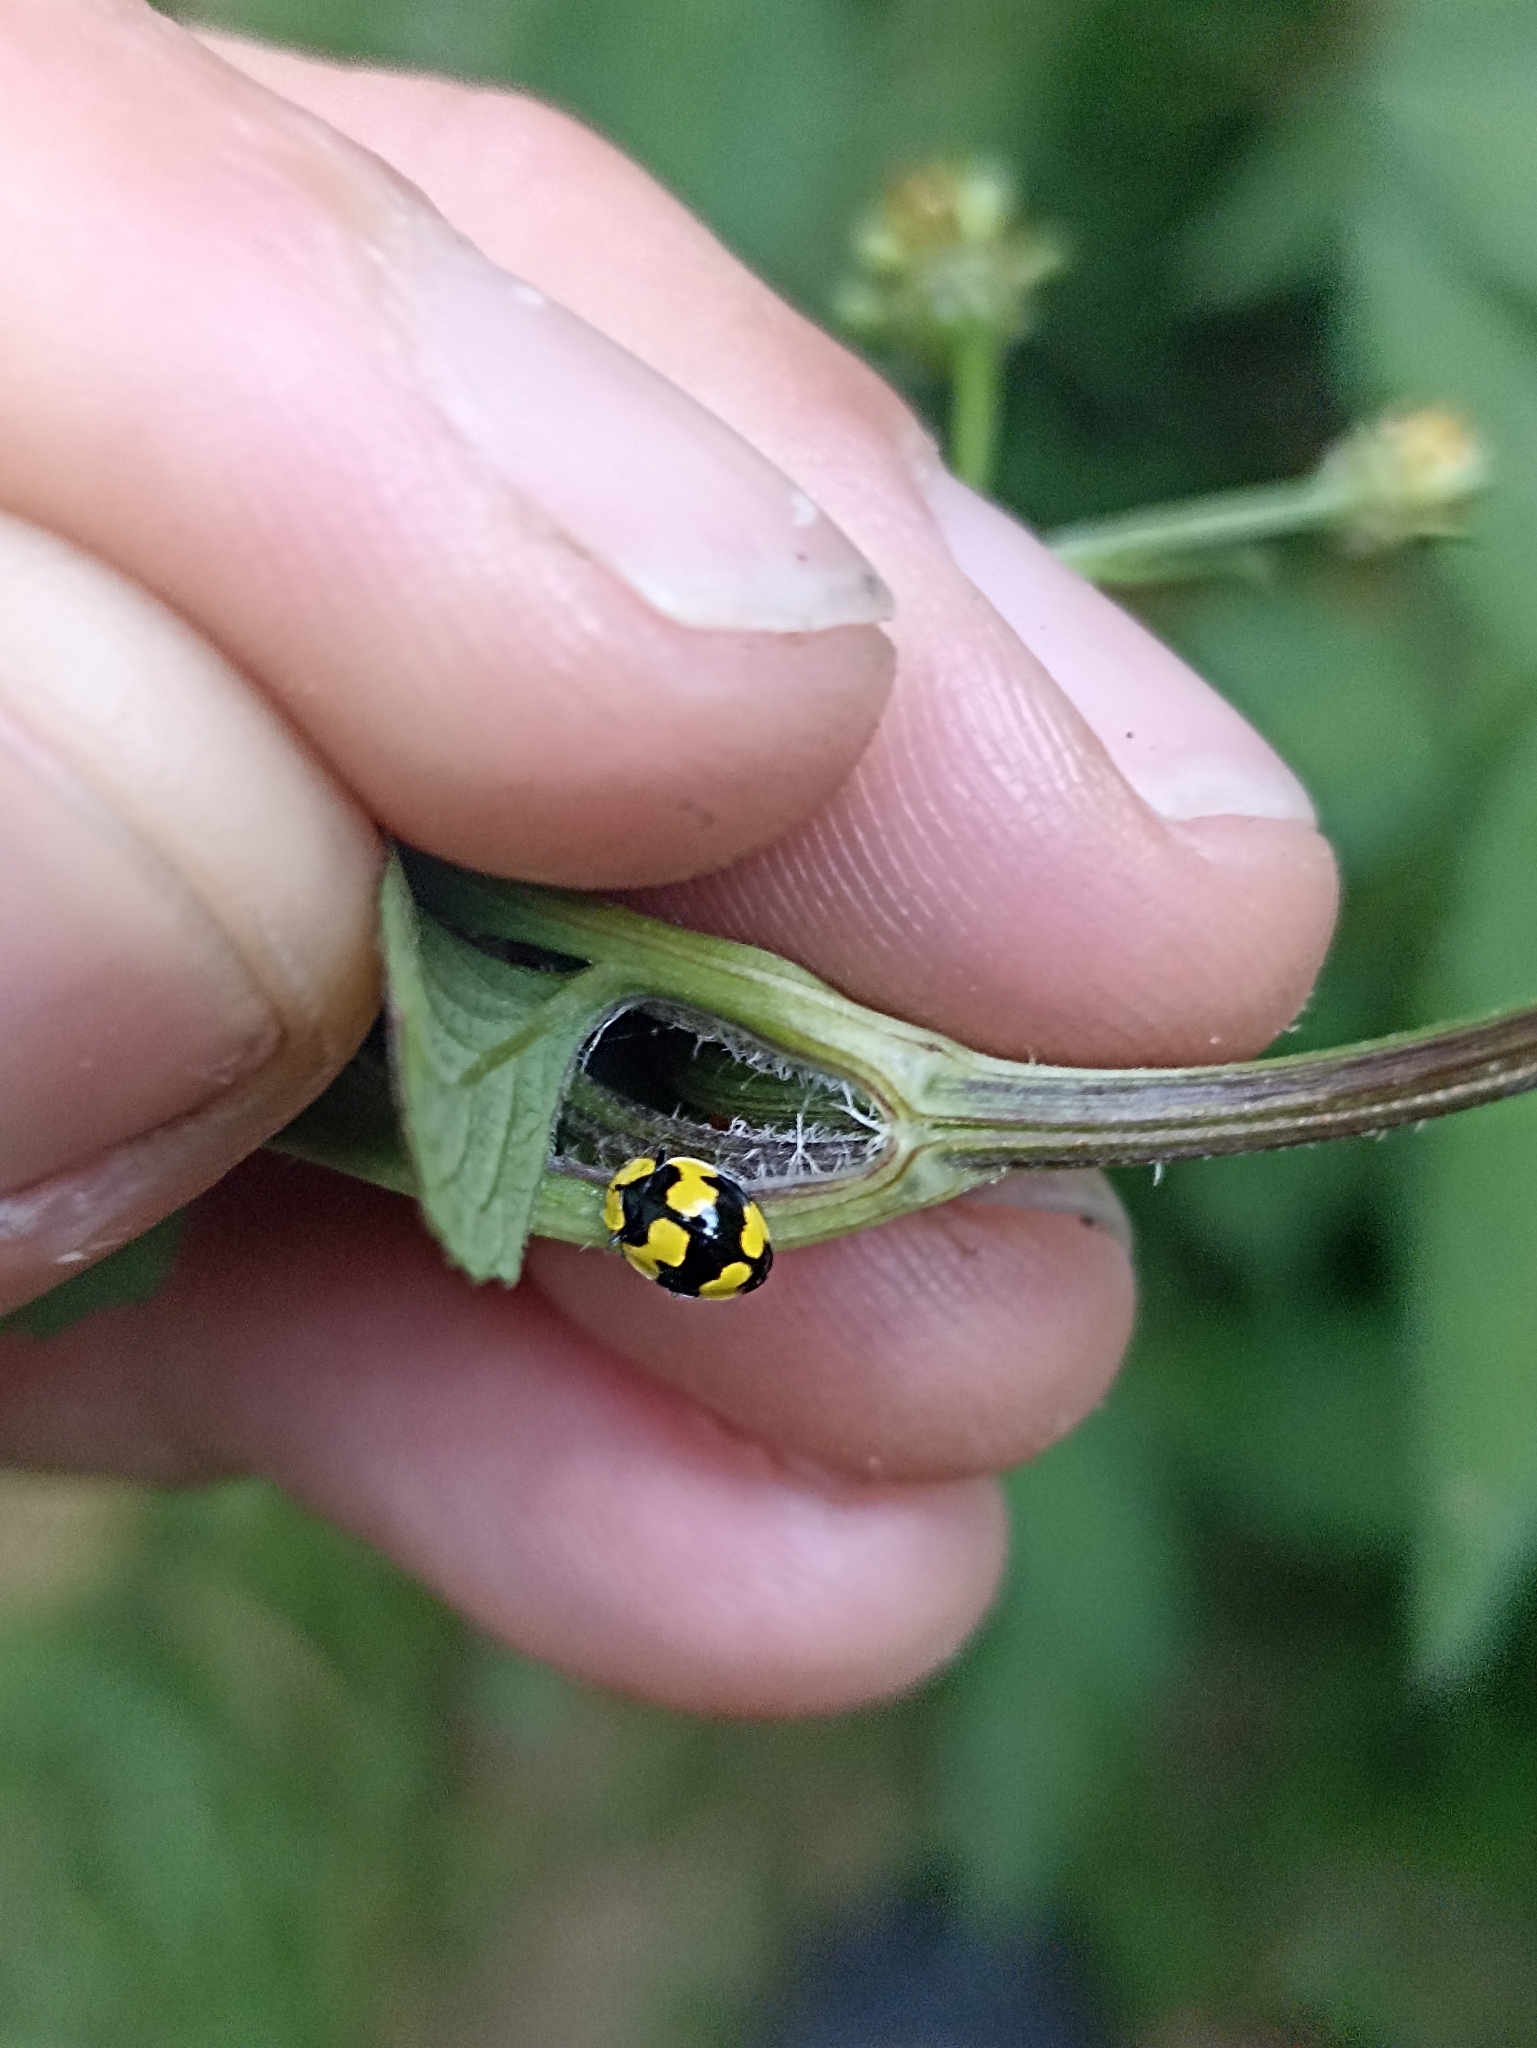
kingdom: Animalia
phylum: Arthropoda
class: Insecta
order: Coleoptera
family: Coccinellidae
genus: Illeis
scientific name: Illeis galbula
